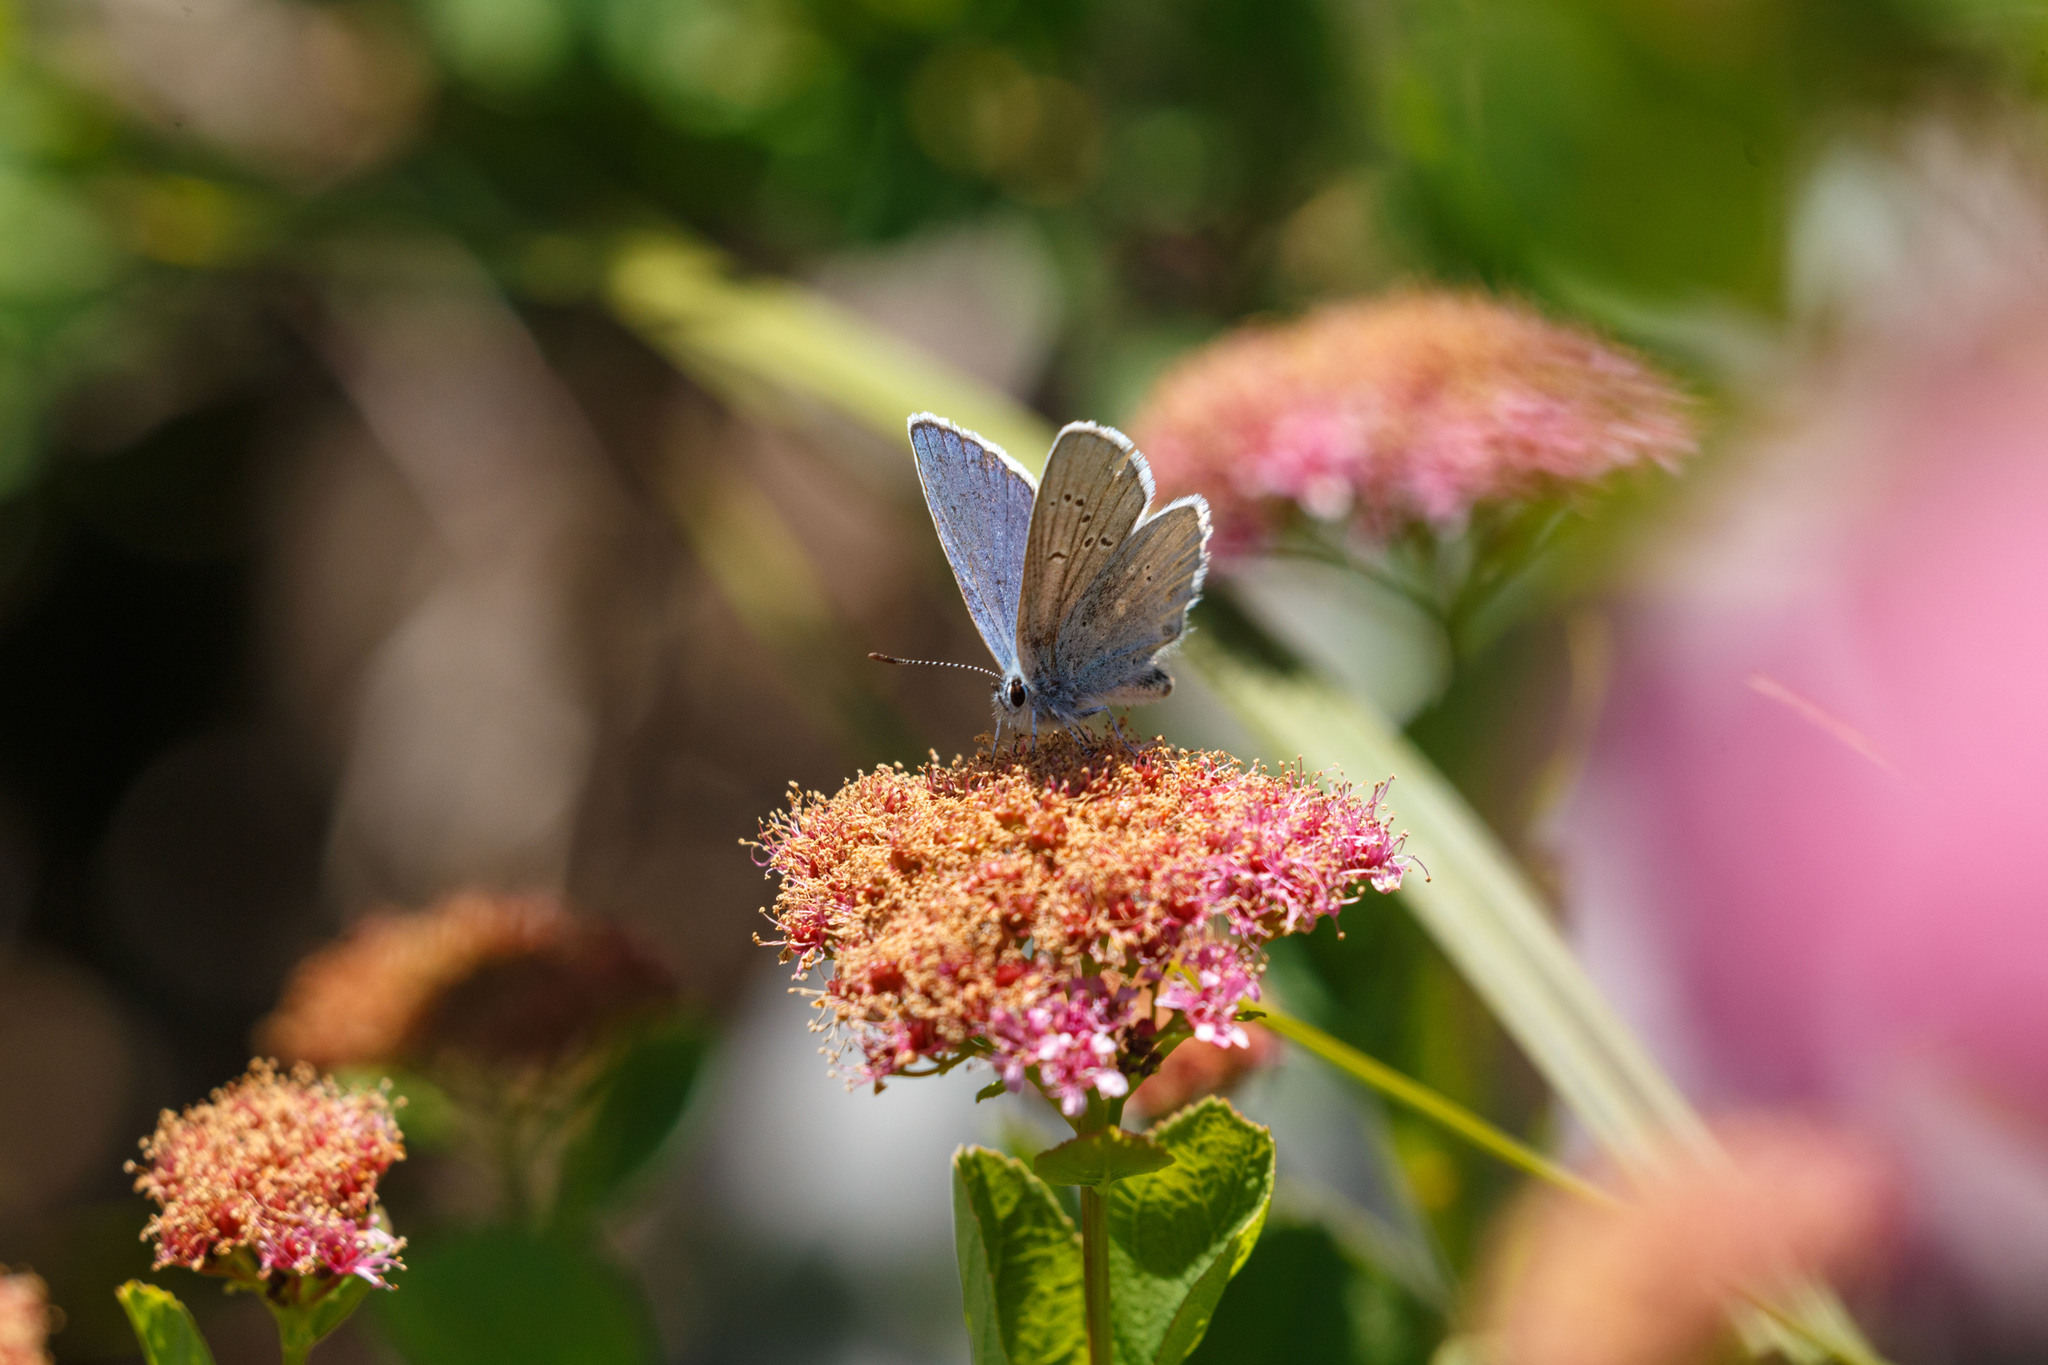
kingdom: Animalia
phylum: Arthropoda
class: Insecta
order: Lepidoptera
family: Lycaenidae
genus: Lycaeides
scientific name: Lycaeides anna
